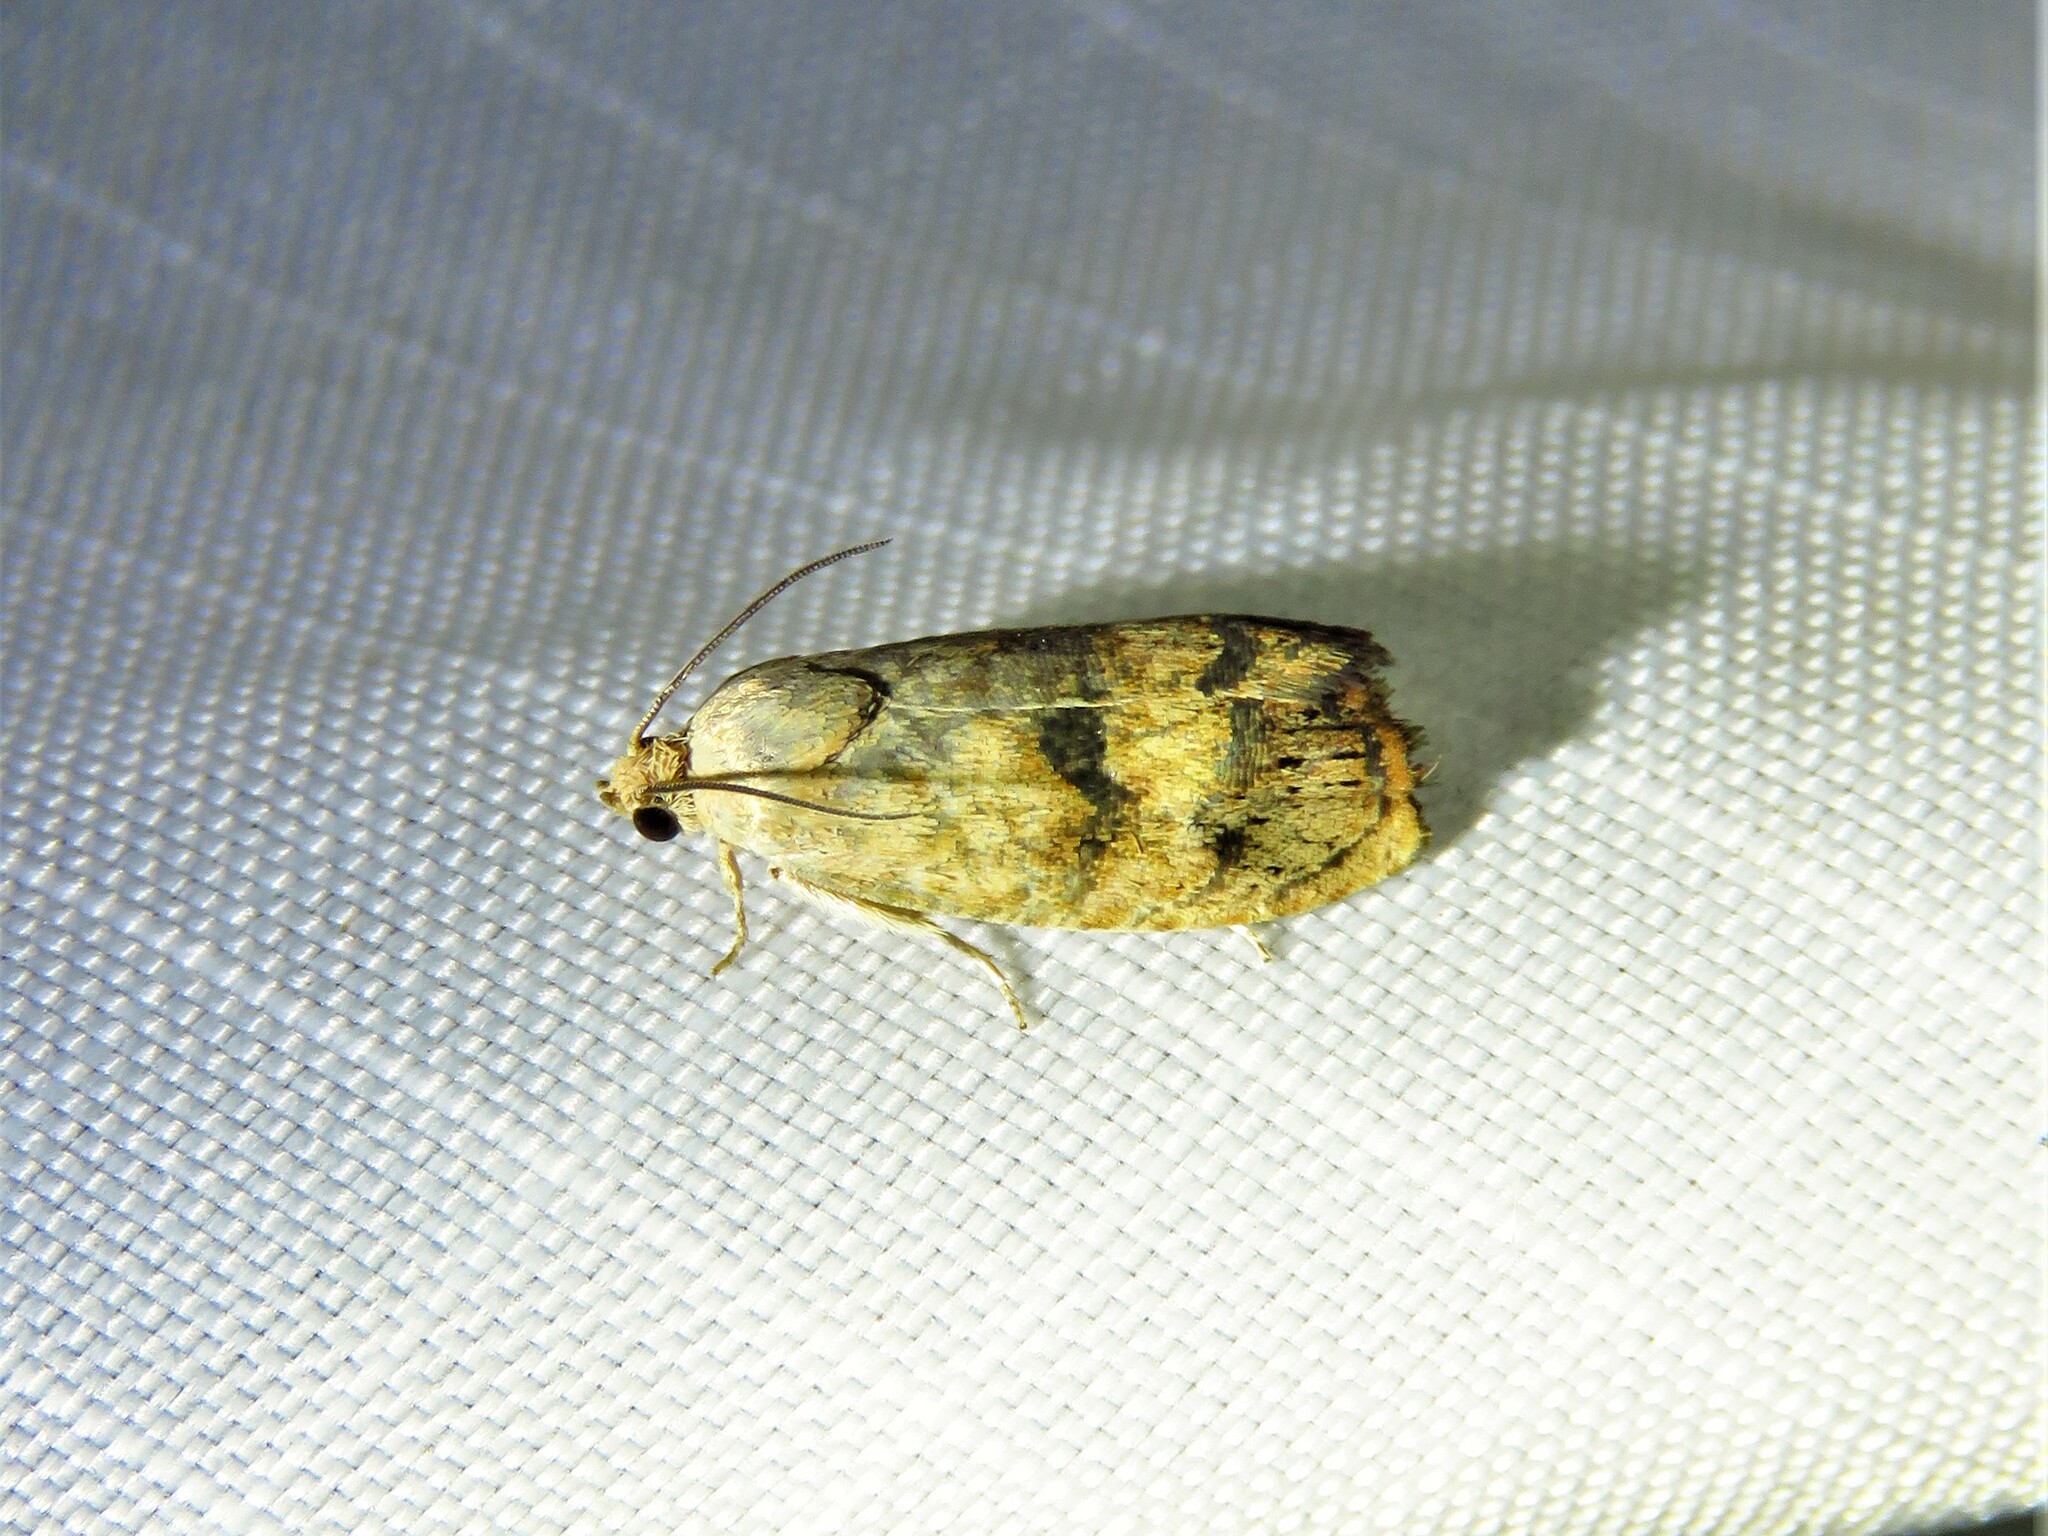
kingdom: Animalia
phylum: Arthropoda
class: Insecta
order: Lepidoptera
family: Tortricidae
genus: Cydia
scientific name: Cydia latiferreana
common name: Filbertworm moth
